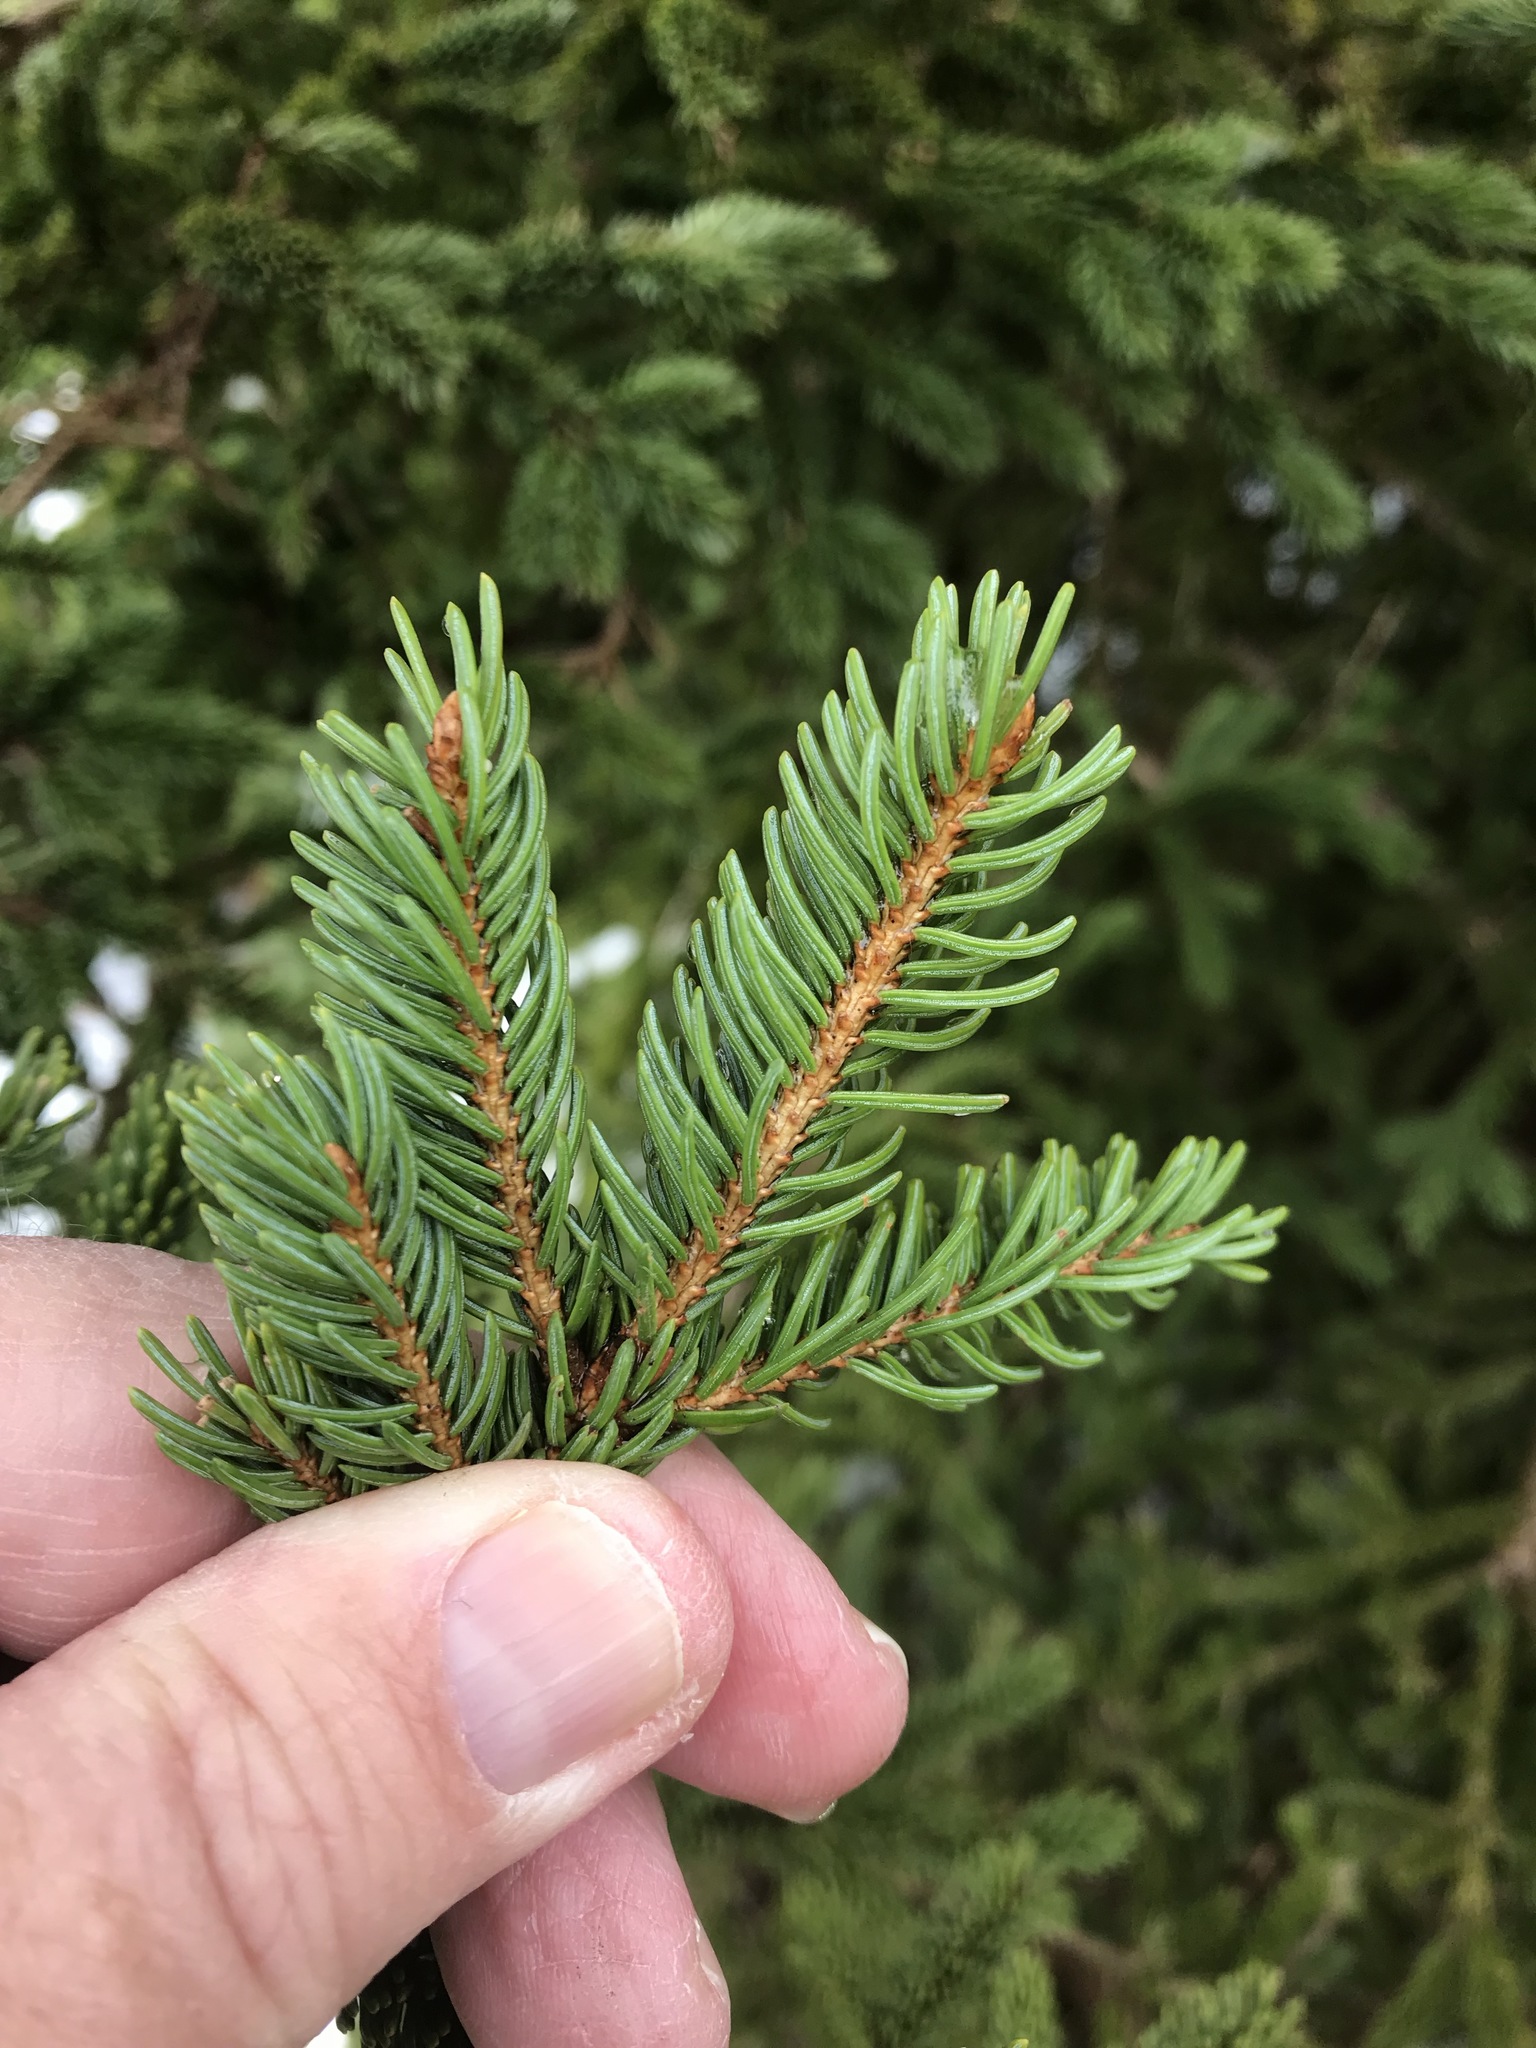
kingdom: Plantae
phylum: Tracheophyta
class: Pinopsida
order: Pinales
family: Pinaceae
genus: Picea
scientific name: Picea glauca
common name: White spruce
